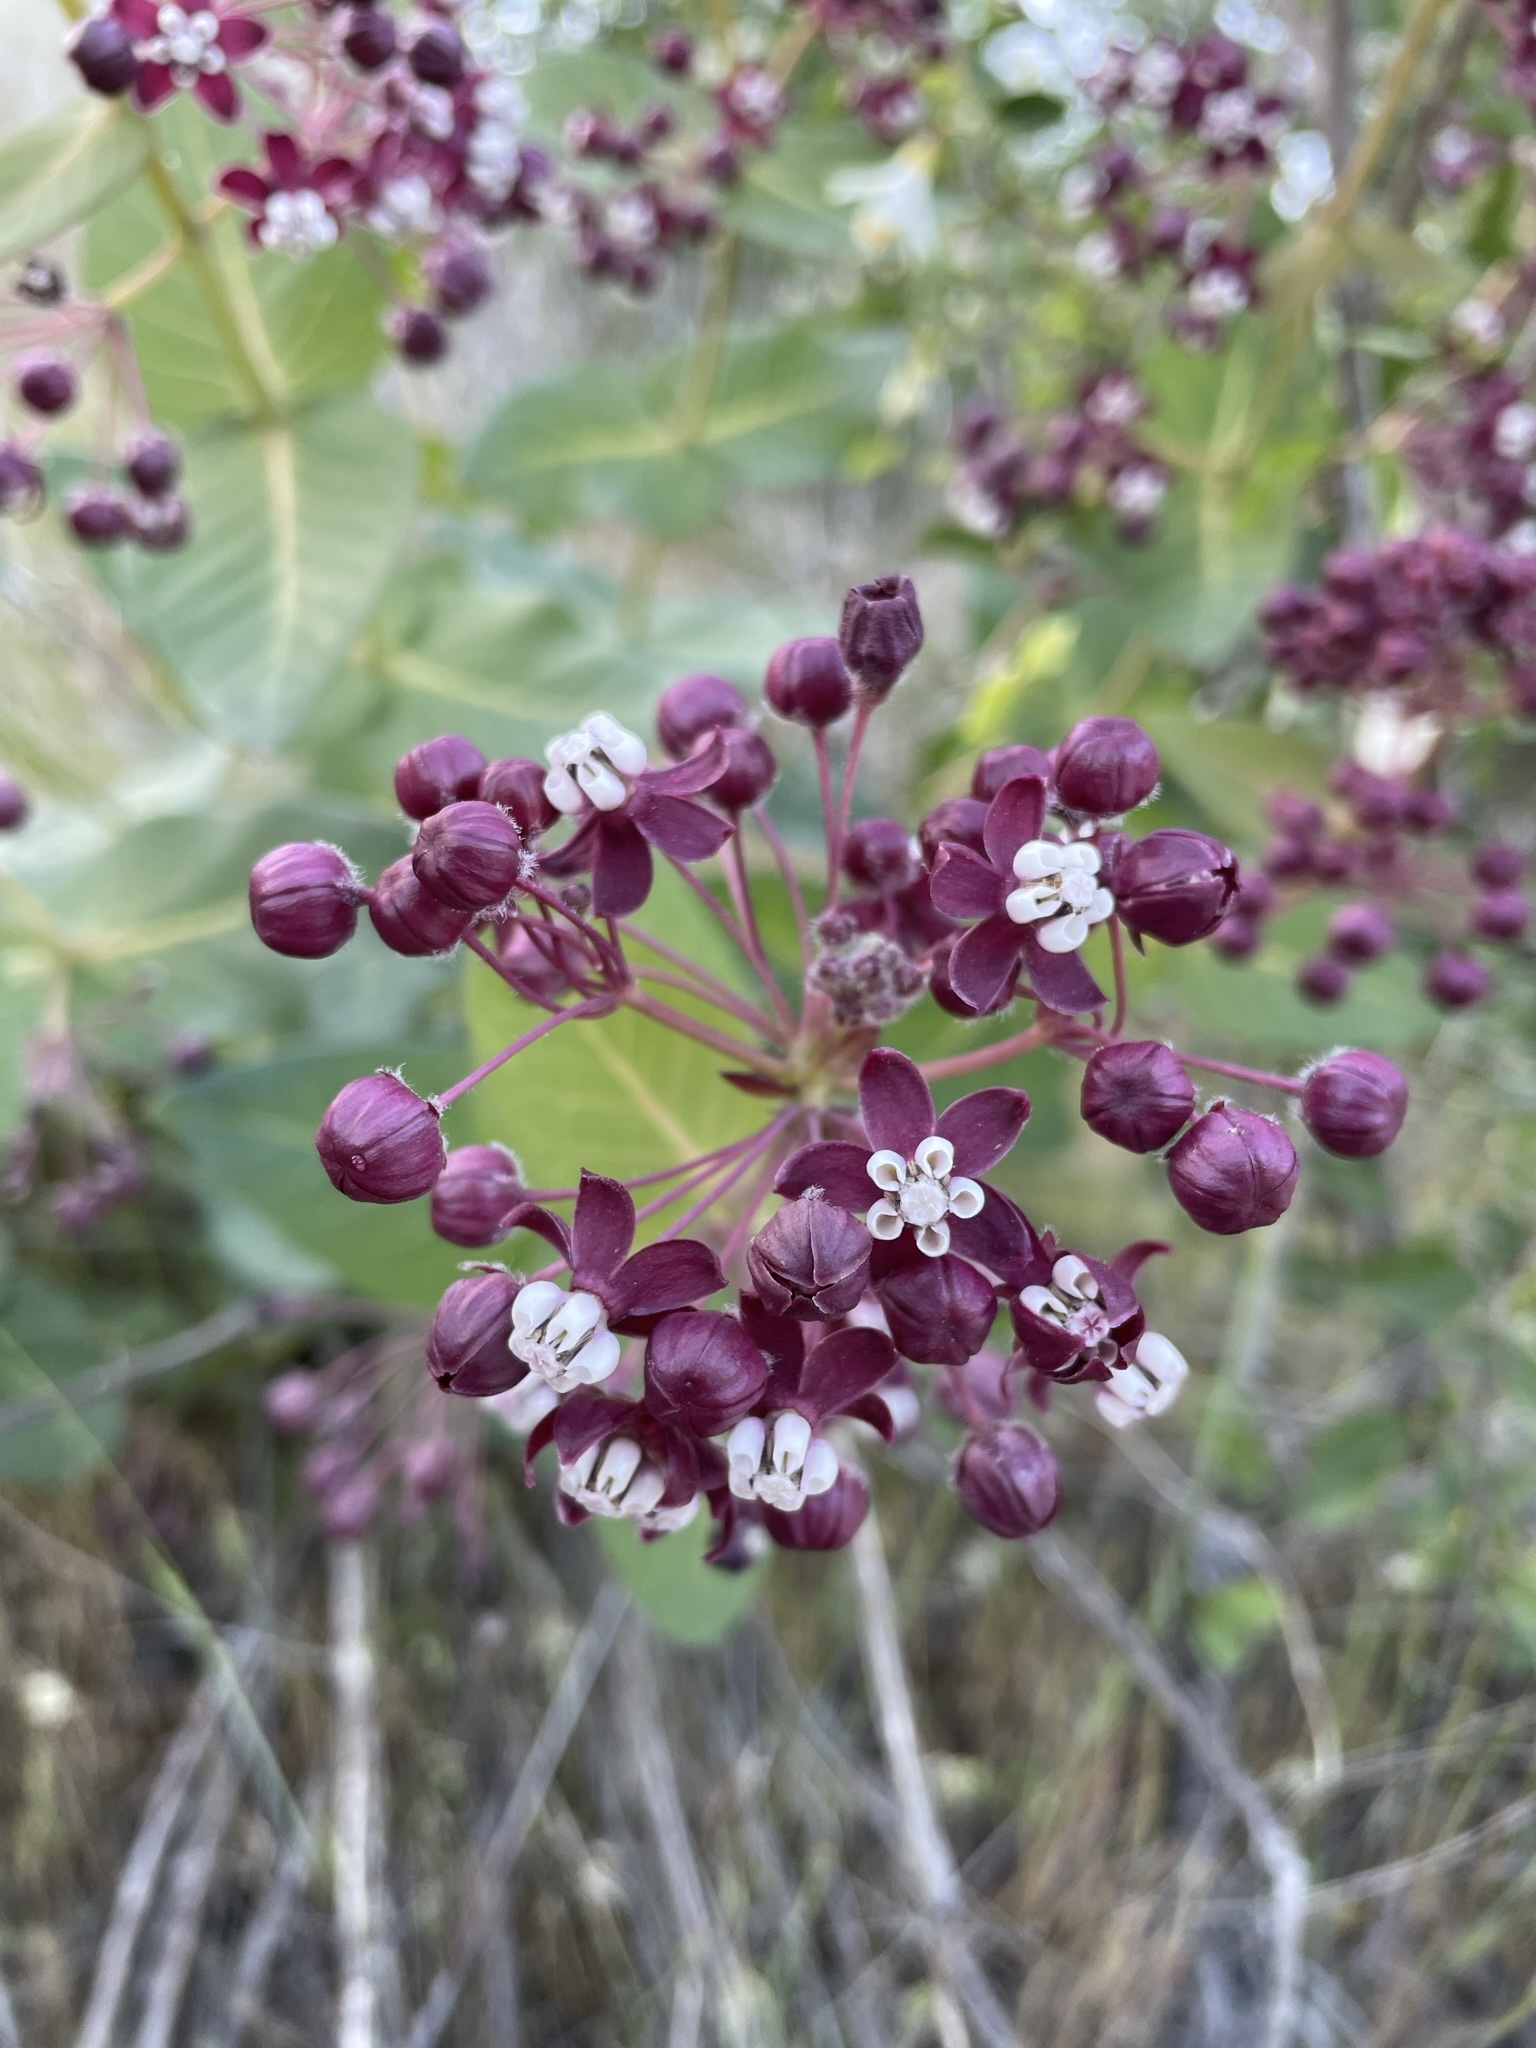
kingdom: Plantae
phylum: Tracheophyta
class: Magnoliopsida
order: Gentianales
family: Apocynaceae
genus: Asclepias
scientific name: Asclepias cordifolia
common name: Purple milkweed
